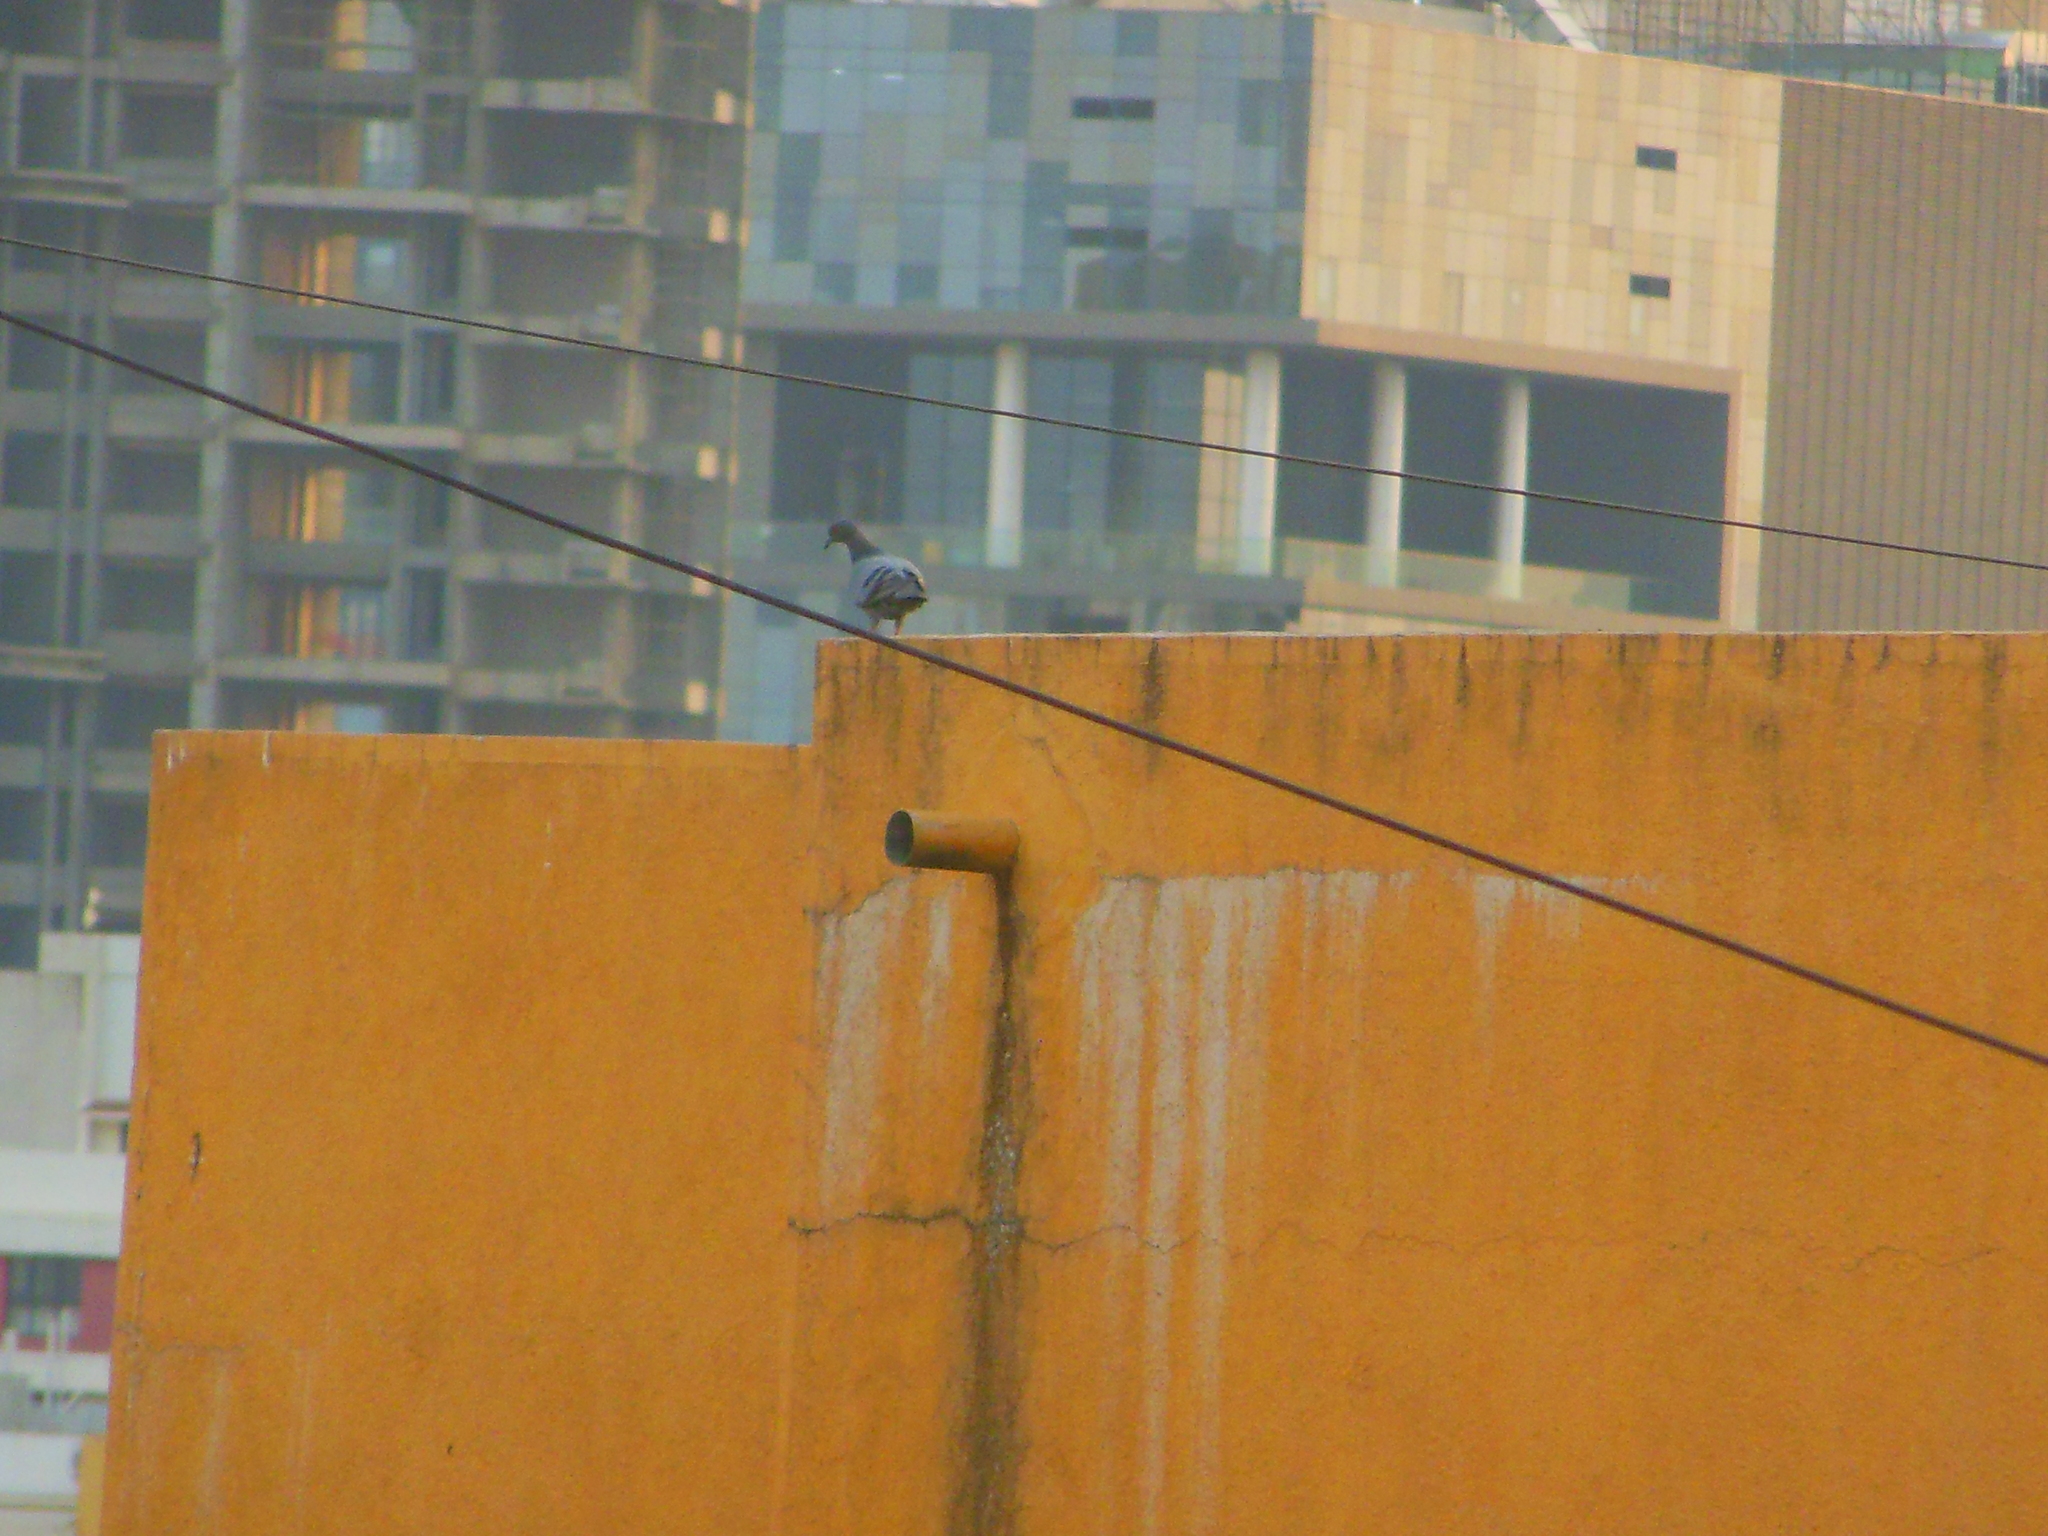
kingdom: Animalia
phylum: Chordata
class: Aves
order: Columbiformes
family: Columbidae
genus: Columba
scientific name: Columba livia
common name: Rock pigeon
